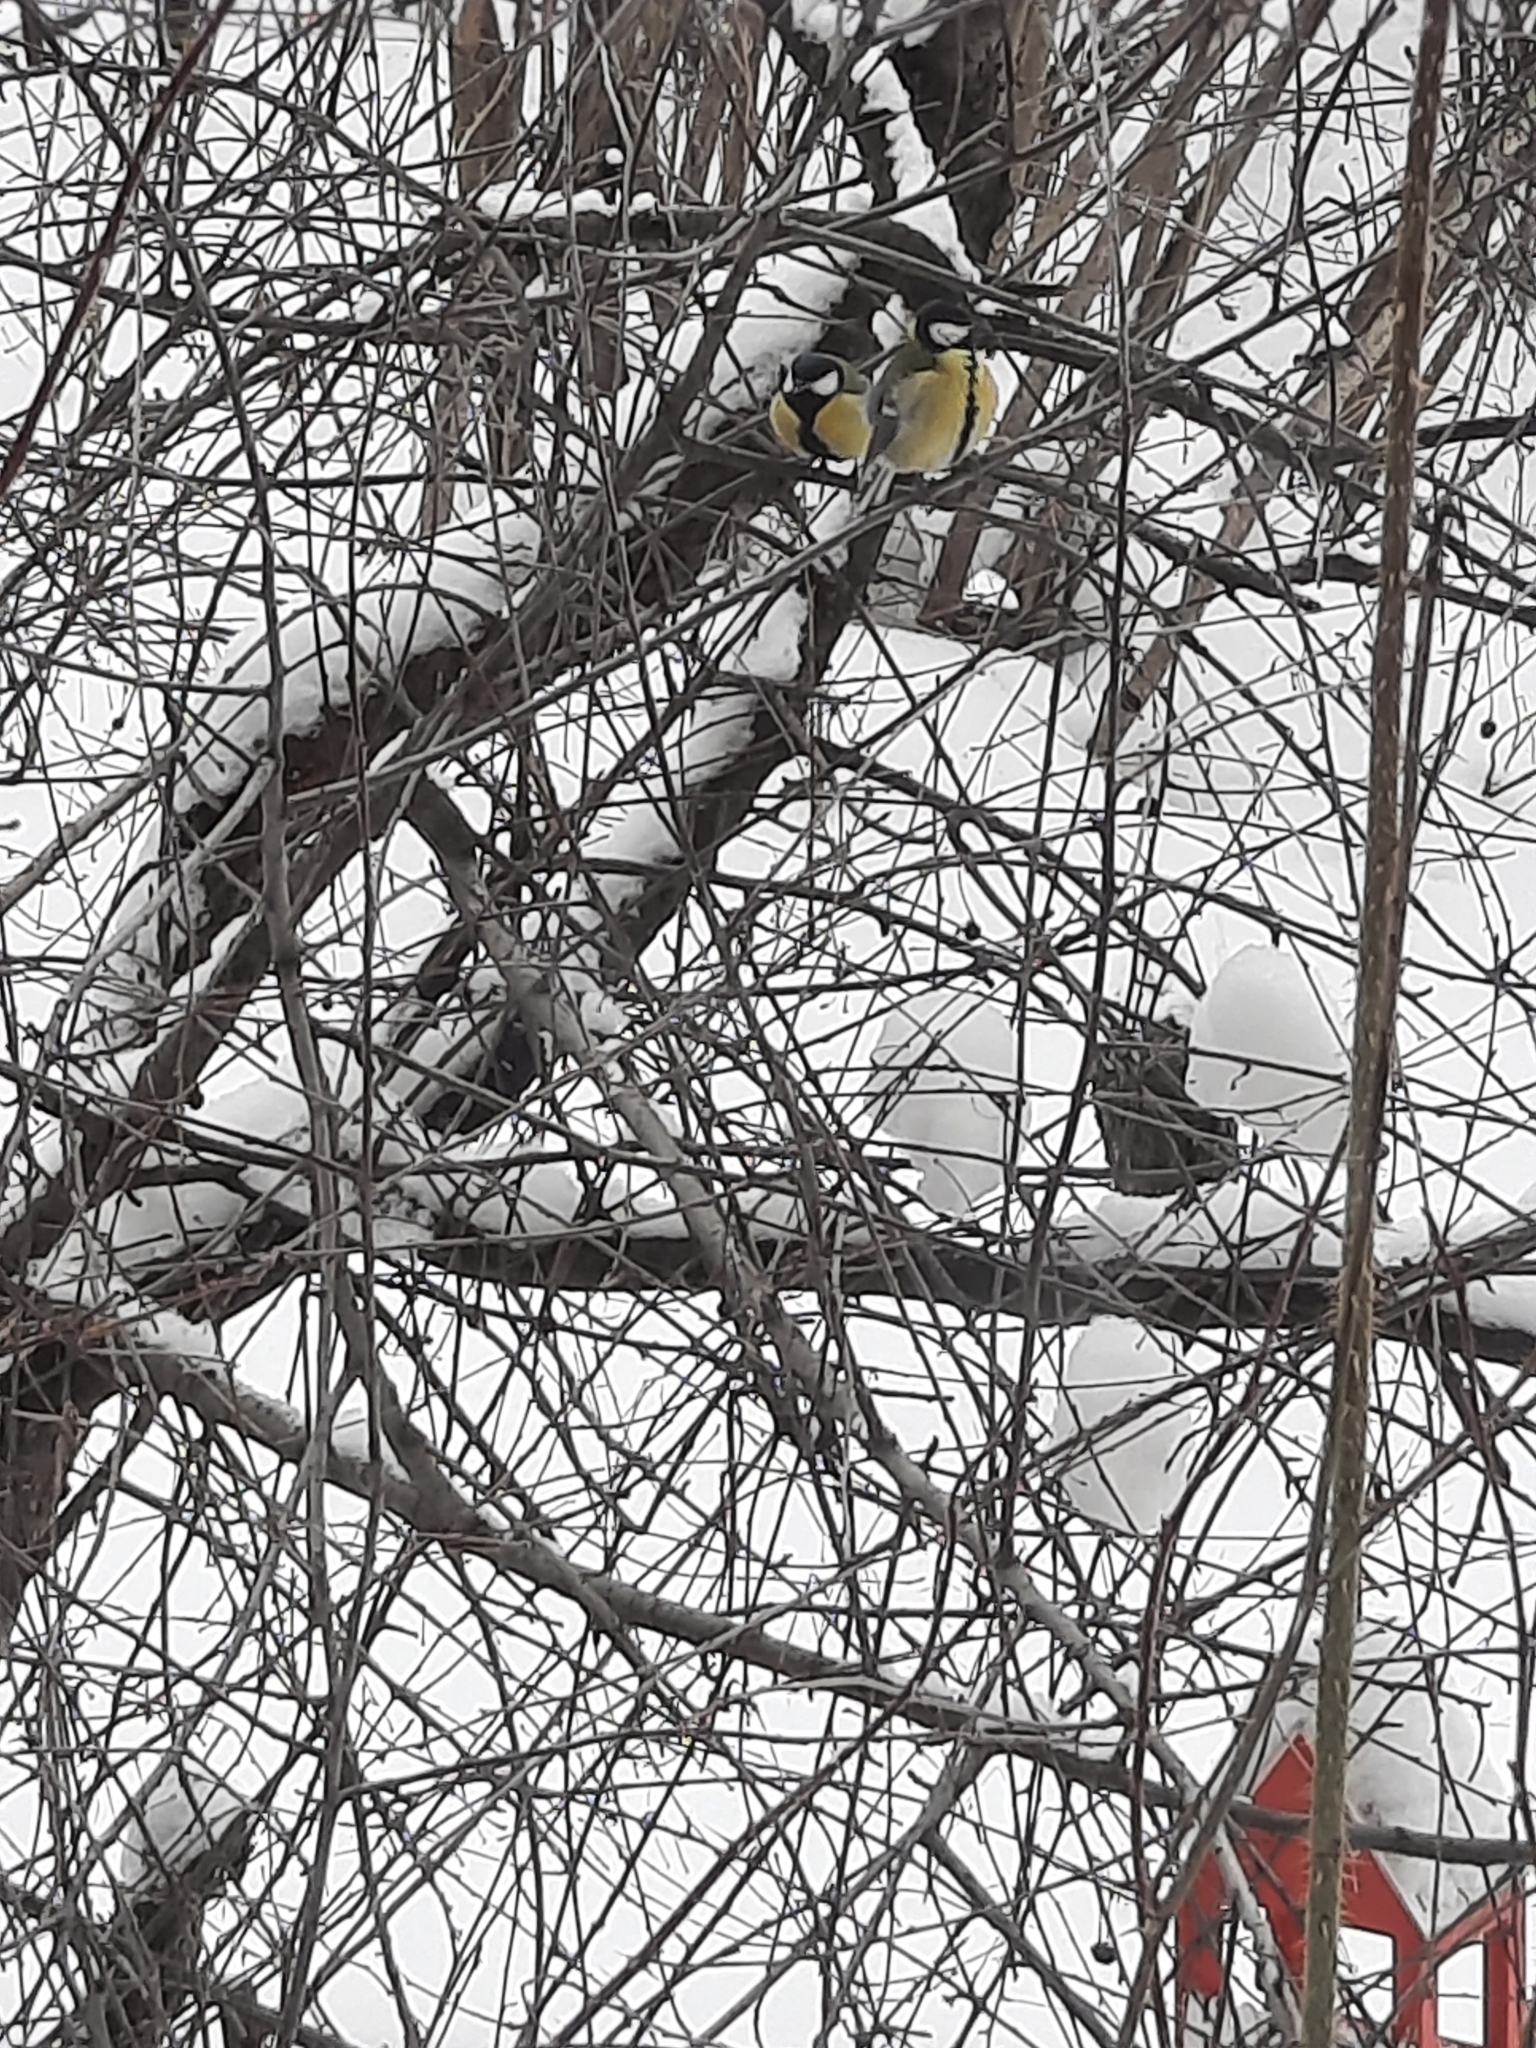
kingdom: Animalia
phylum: Chordata
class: Aves
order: Passeriformes
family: Paridae
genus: Parus
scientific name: Parus major
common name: Great tit
